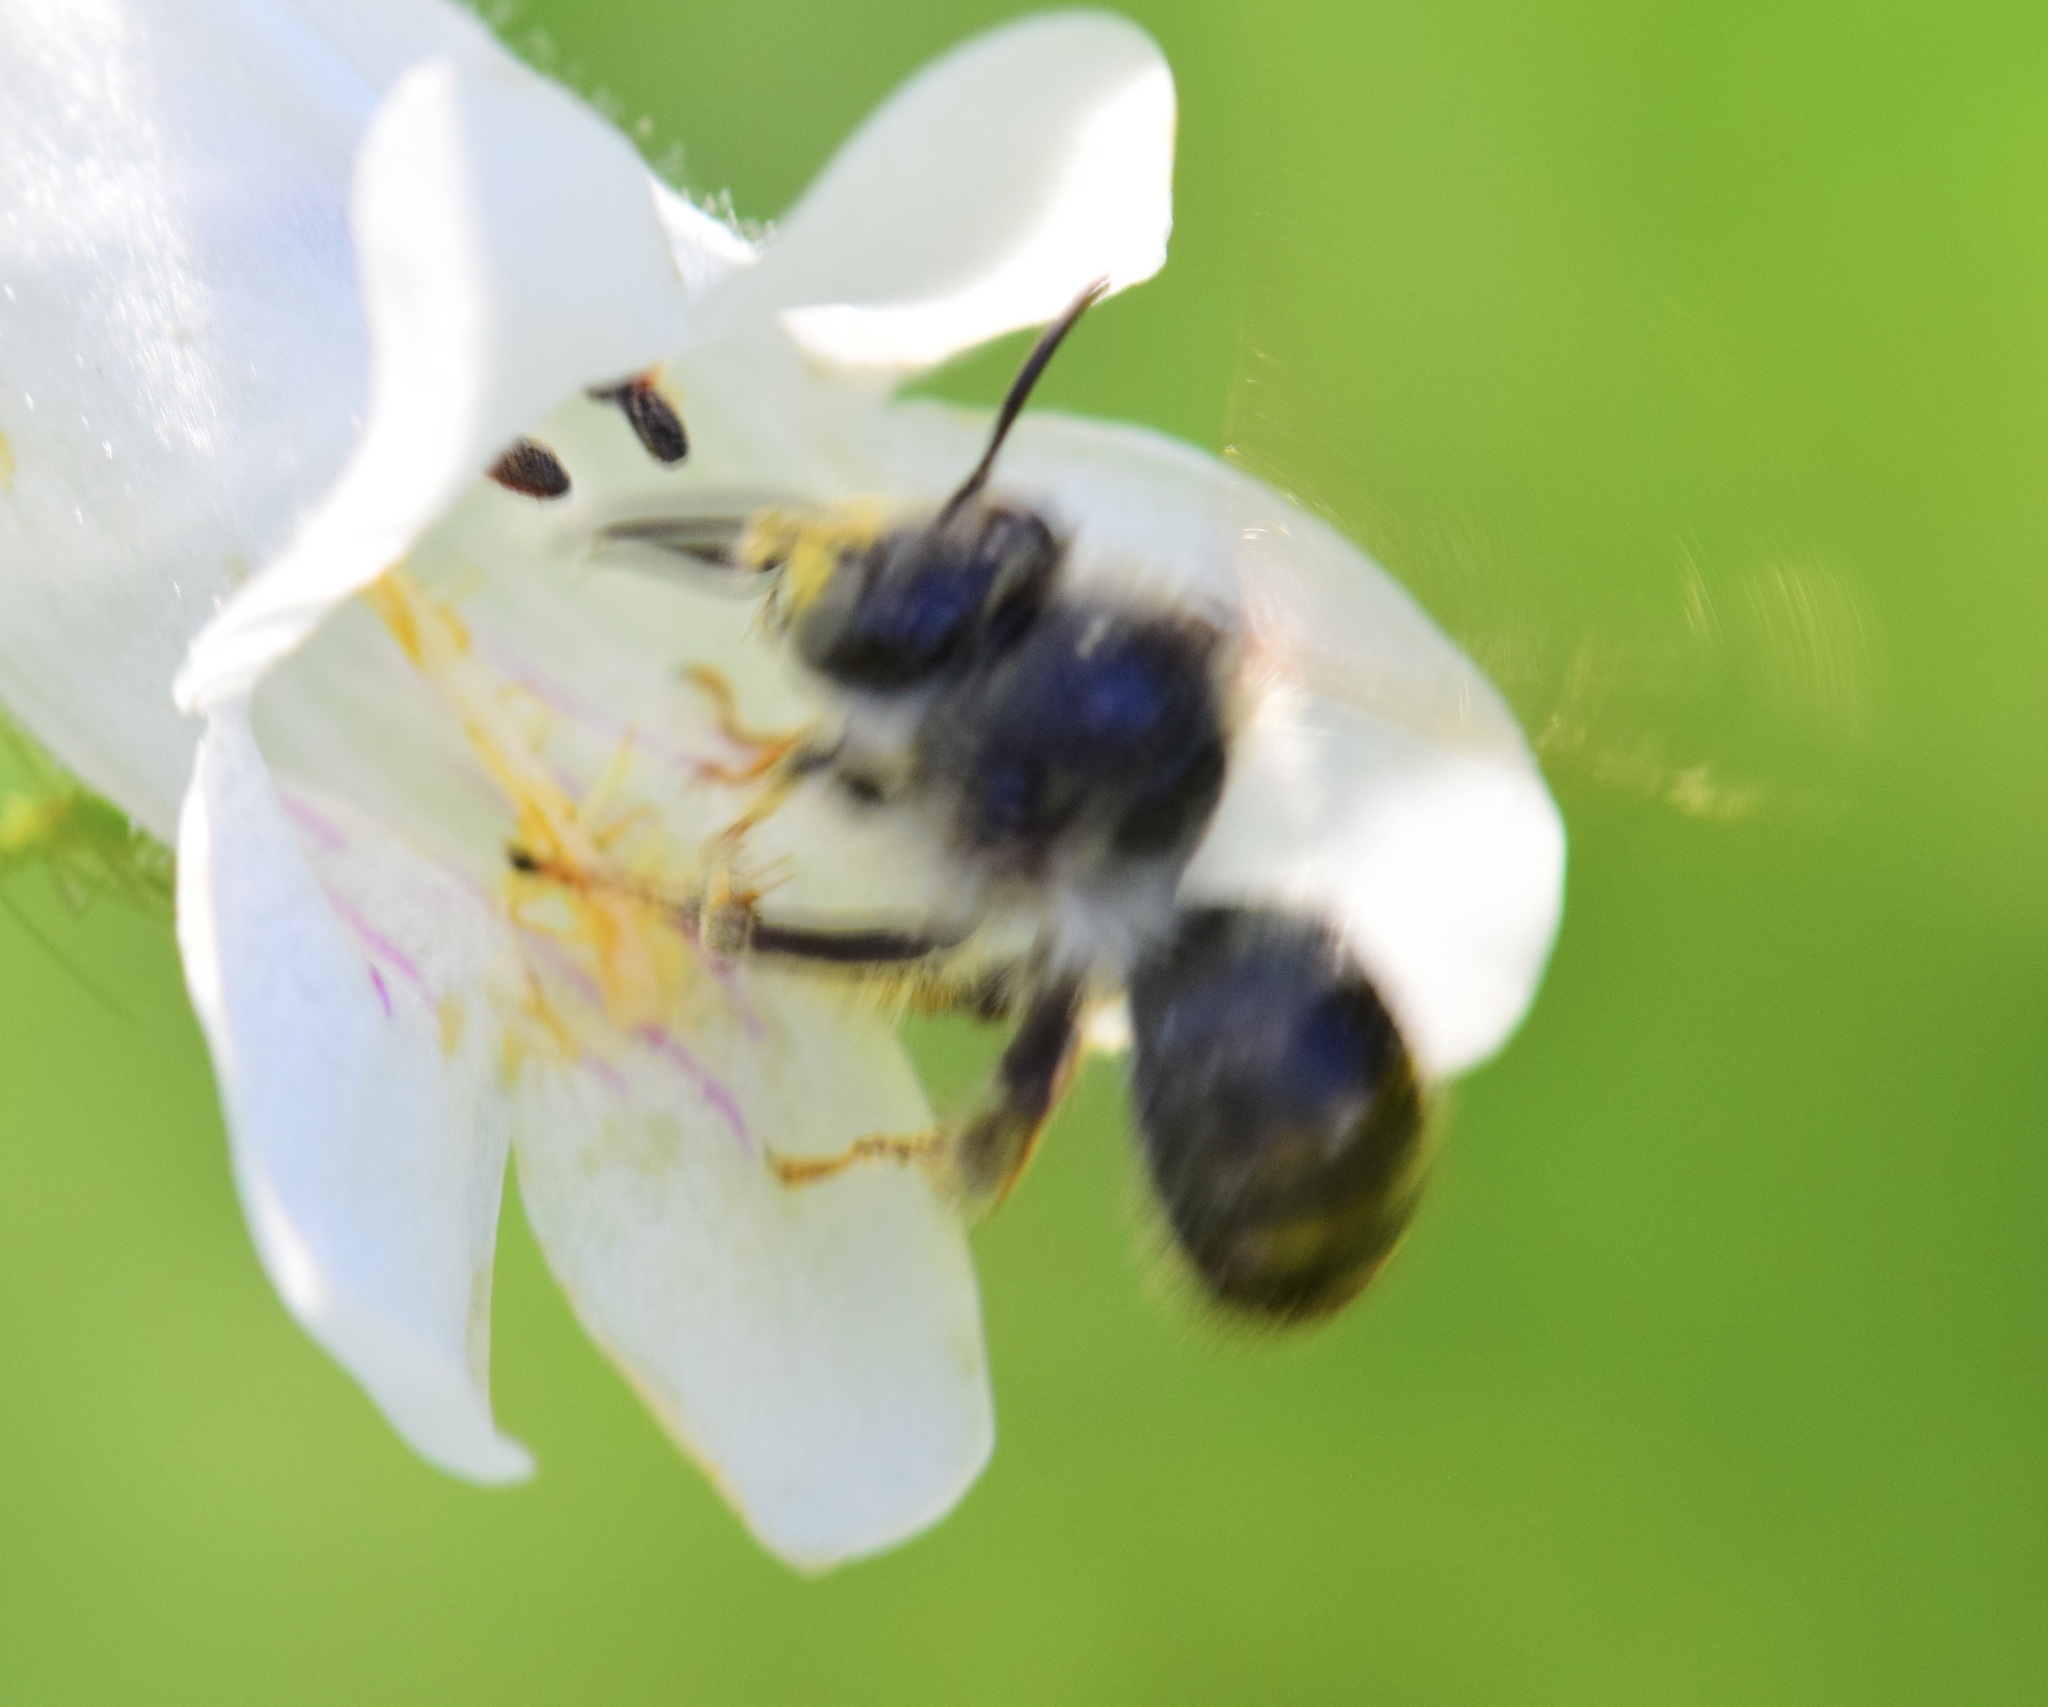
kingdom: Animalia
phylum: Arthropoda
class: Insecta
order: Hymenoptera
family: Apidae
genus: Anthophora
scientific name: Anthophora terminalis
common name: Orange-tipped wood-digger bee
